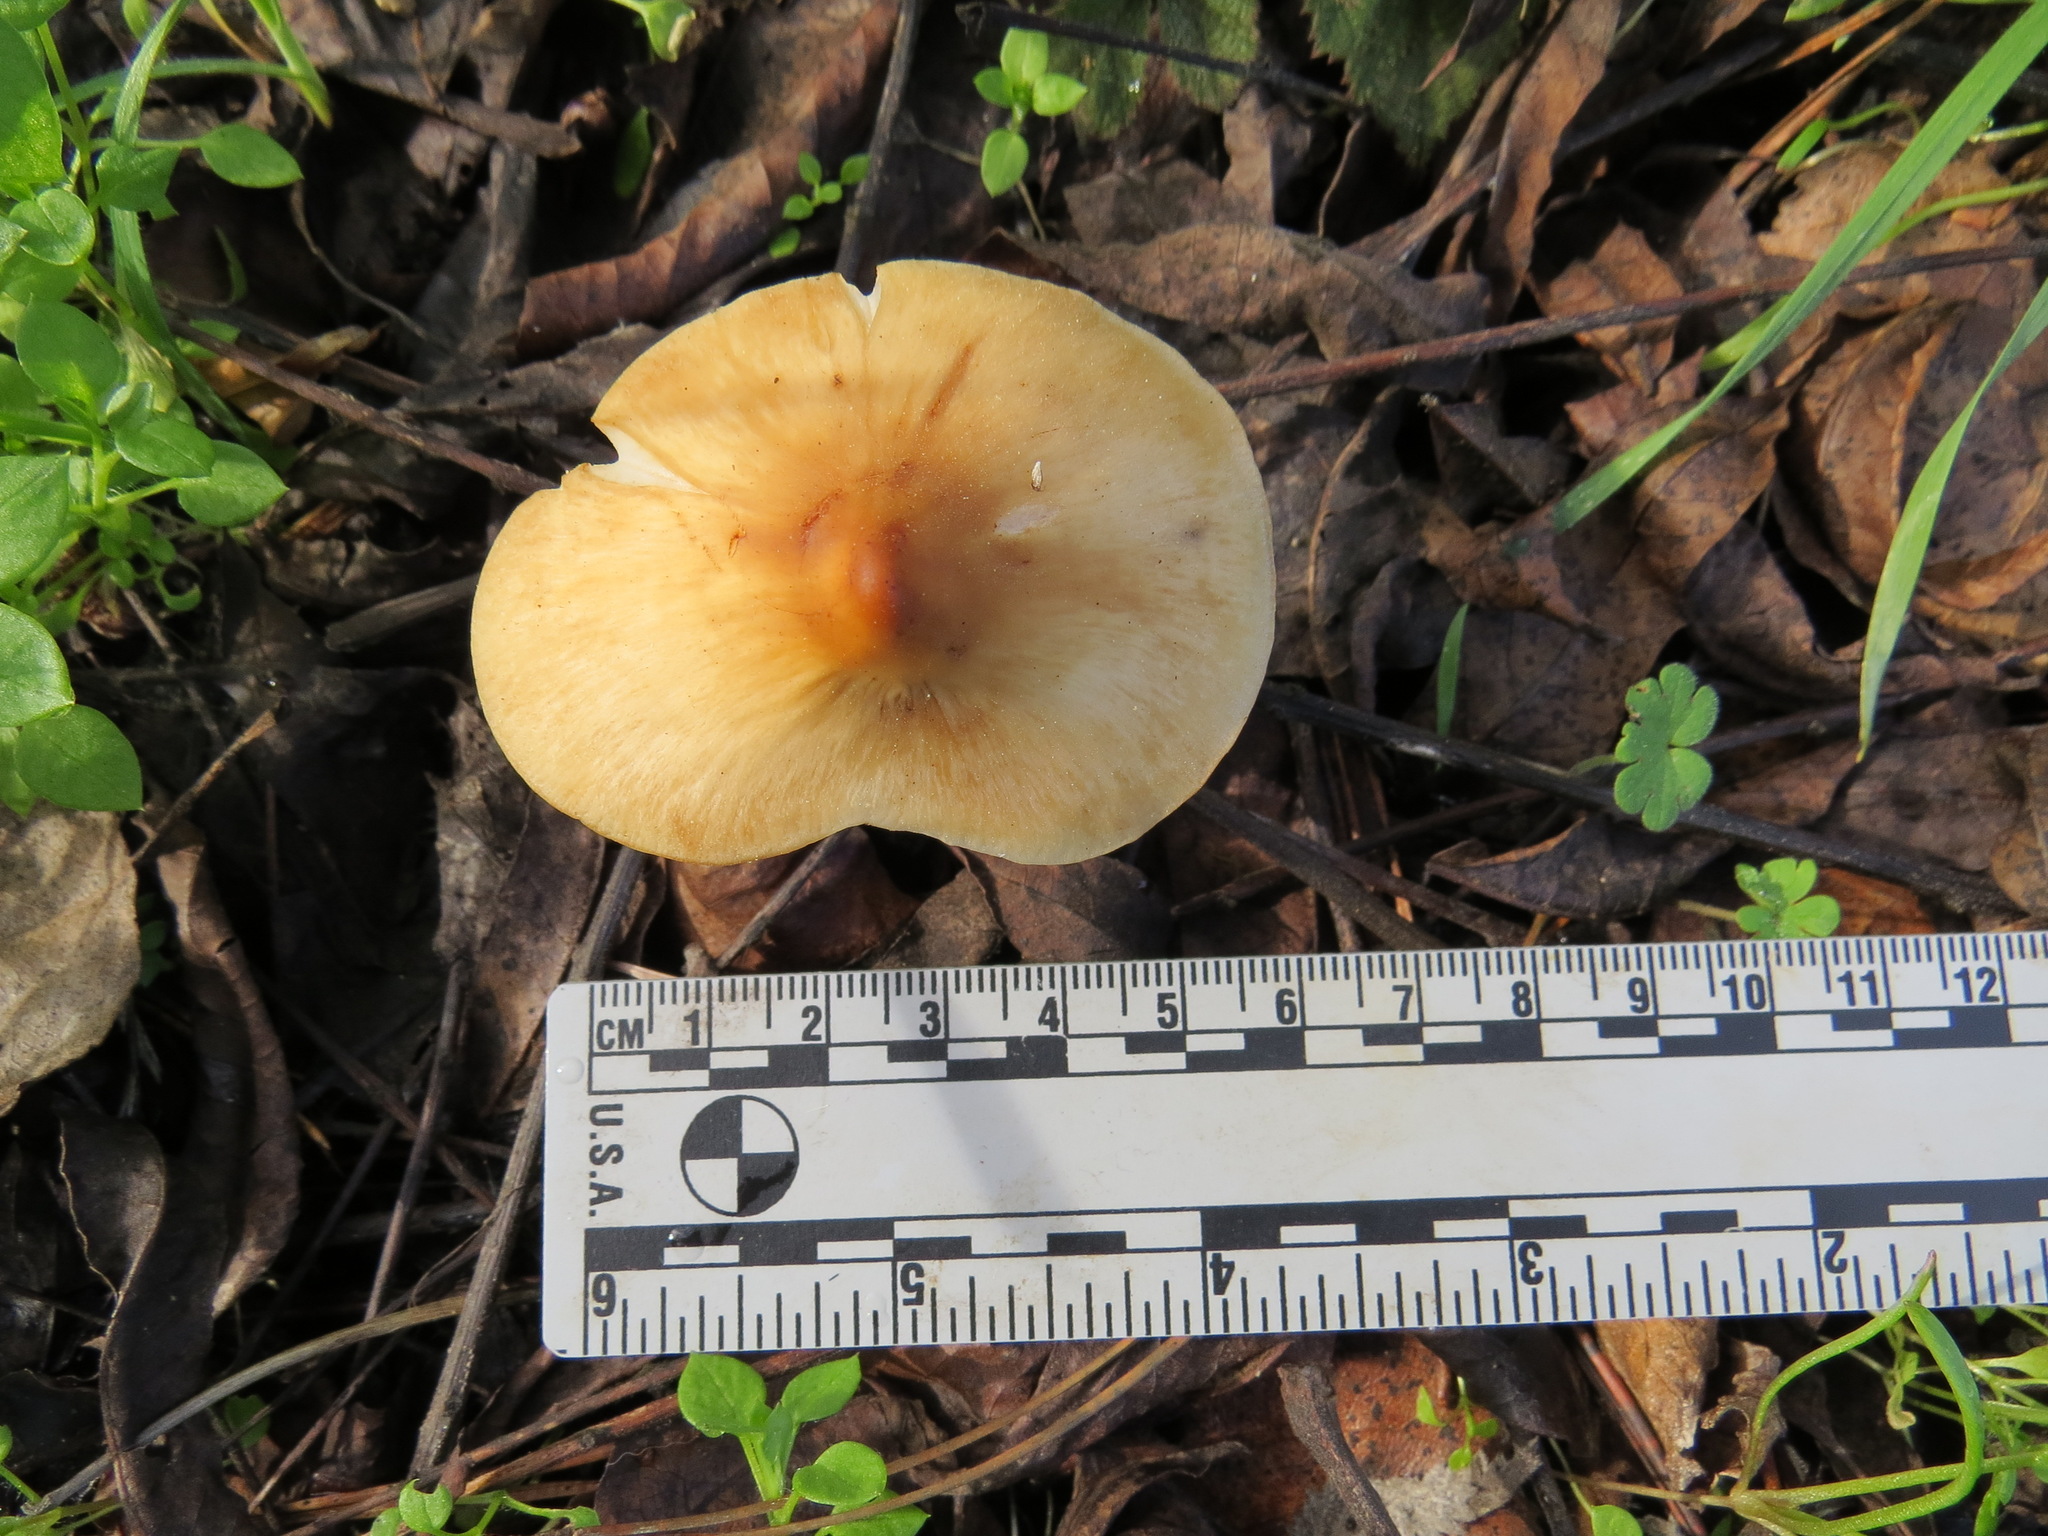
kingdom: Fungi
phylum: Basidiomycota
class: Agaricomycetes
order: Agaricales
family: Tricholomataceae
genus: Caulorhiza
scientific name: Caulorhiza umbonata
